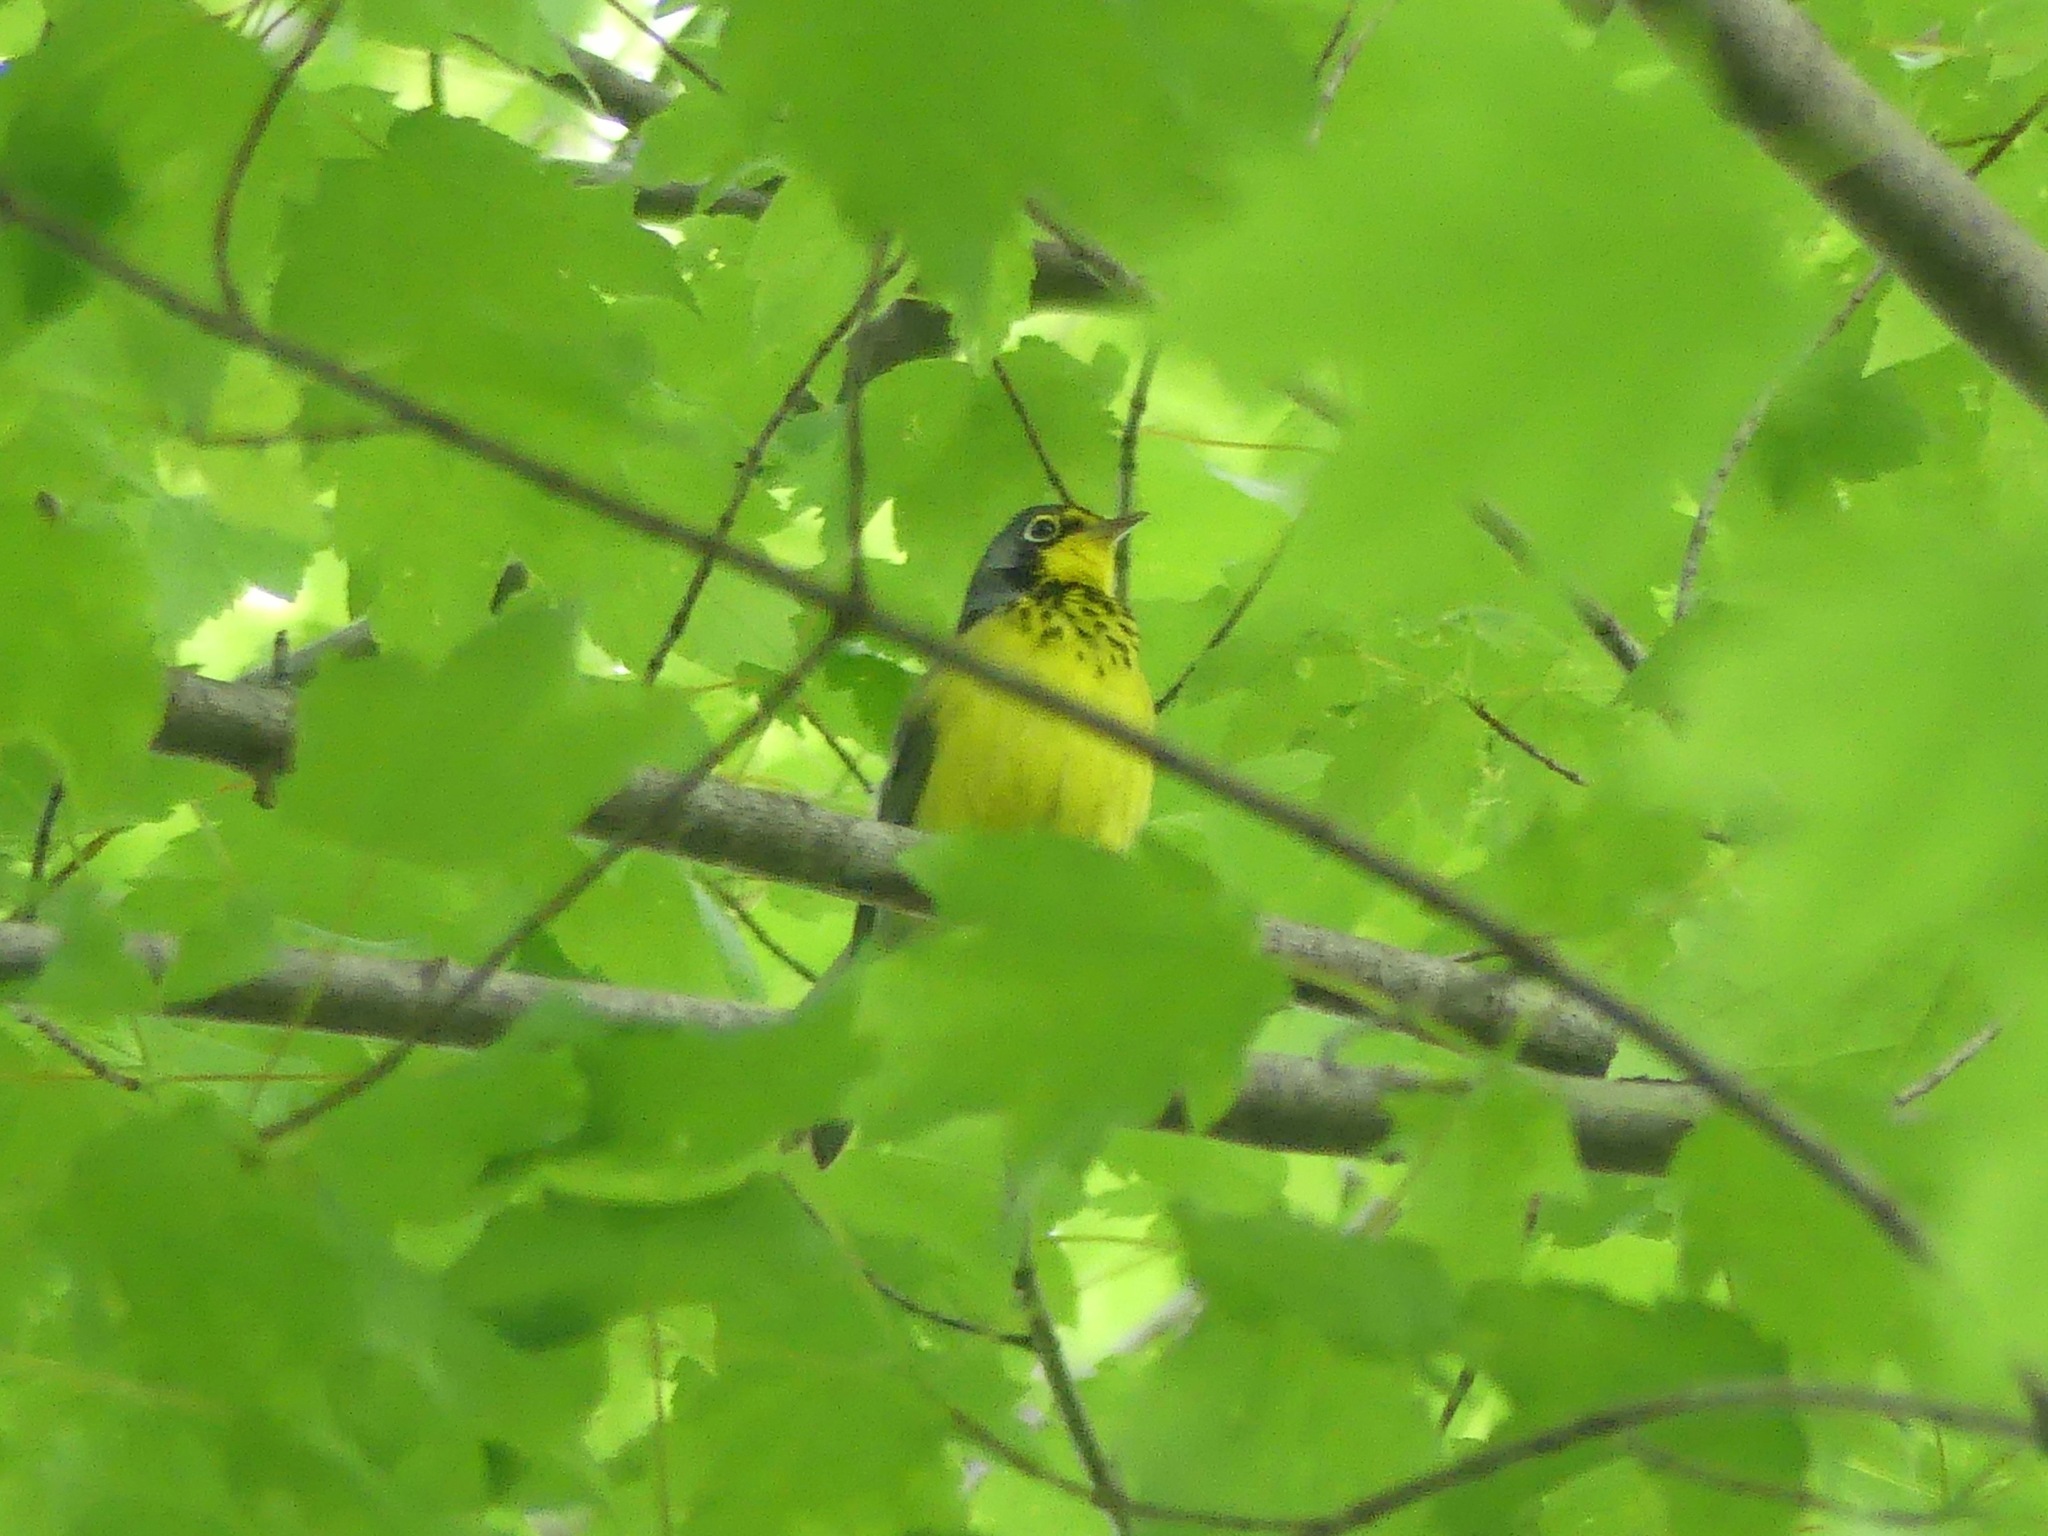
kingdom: Animalia
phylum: Chordata
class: Aves
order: Passeriformes
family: Parulidae
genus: Cardellina
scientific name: Cardellina canadensis
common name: Canada warbler
